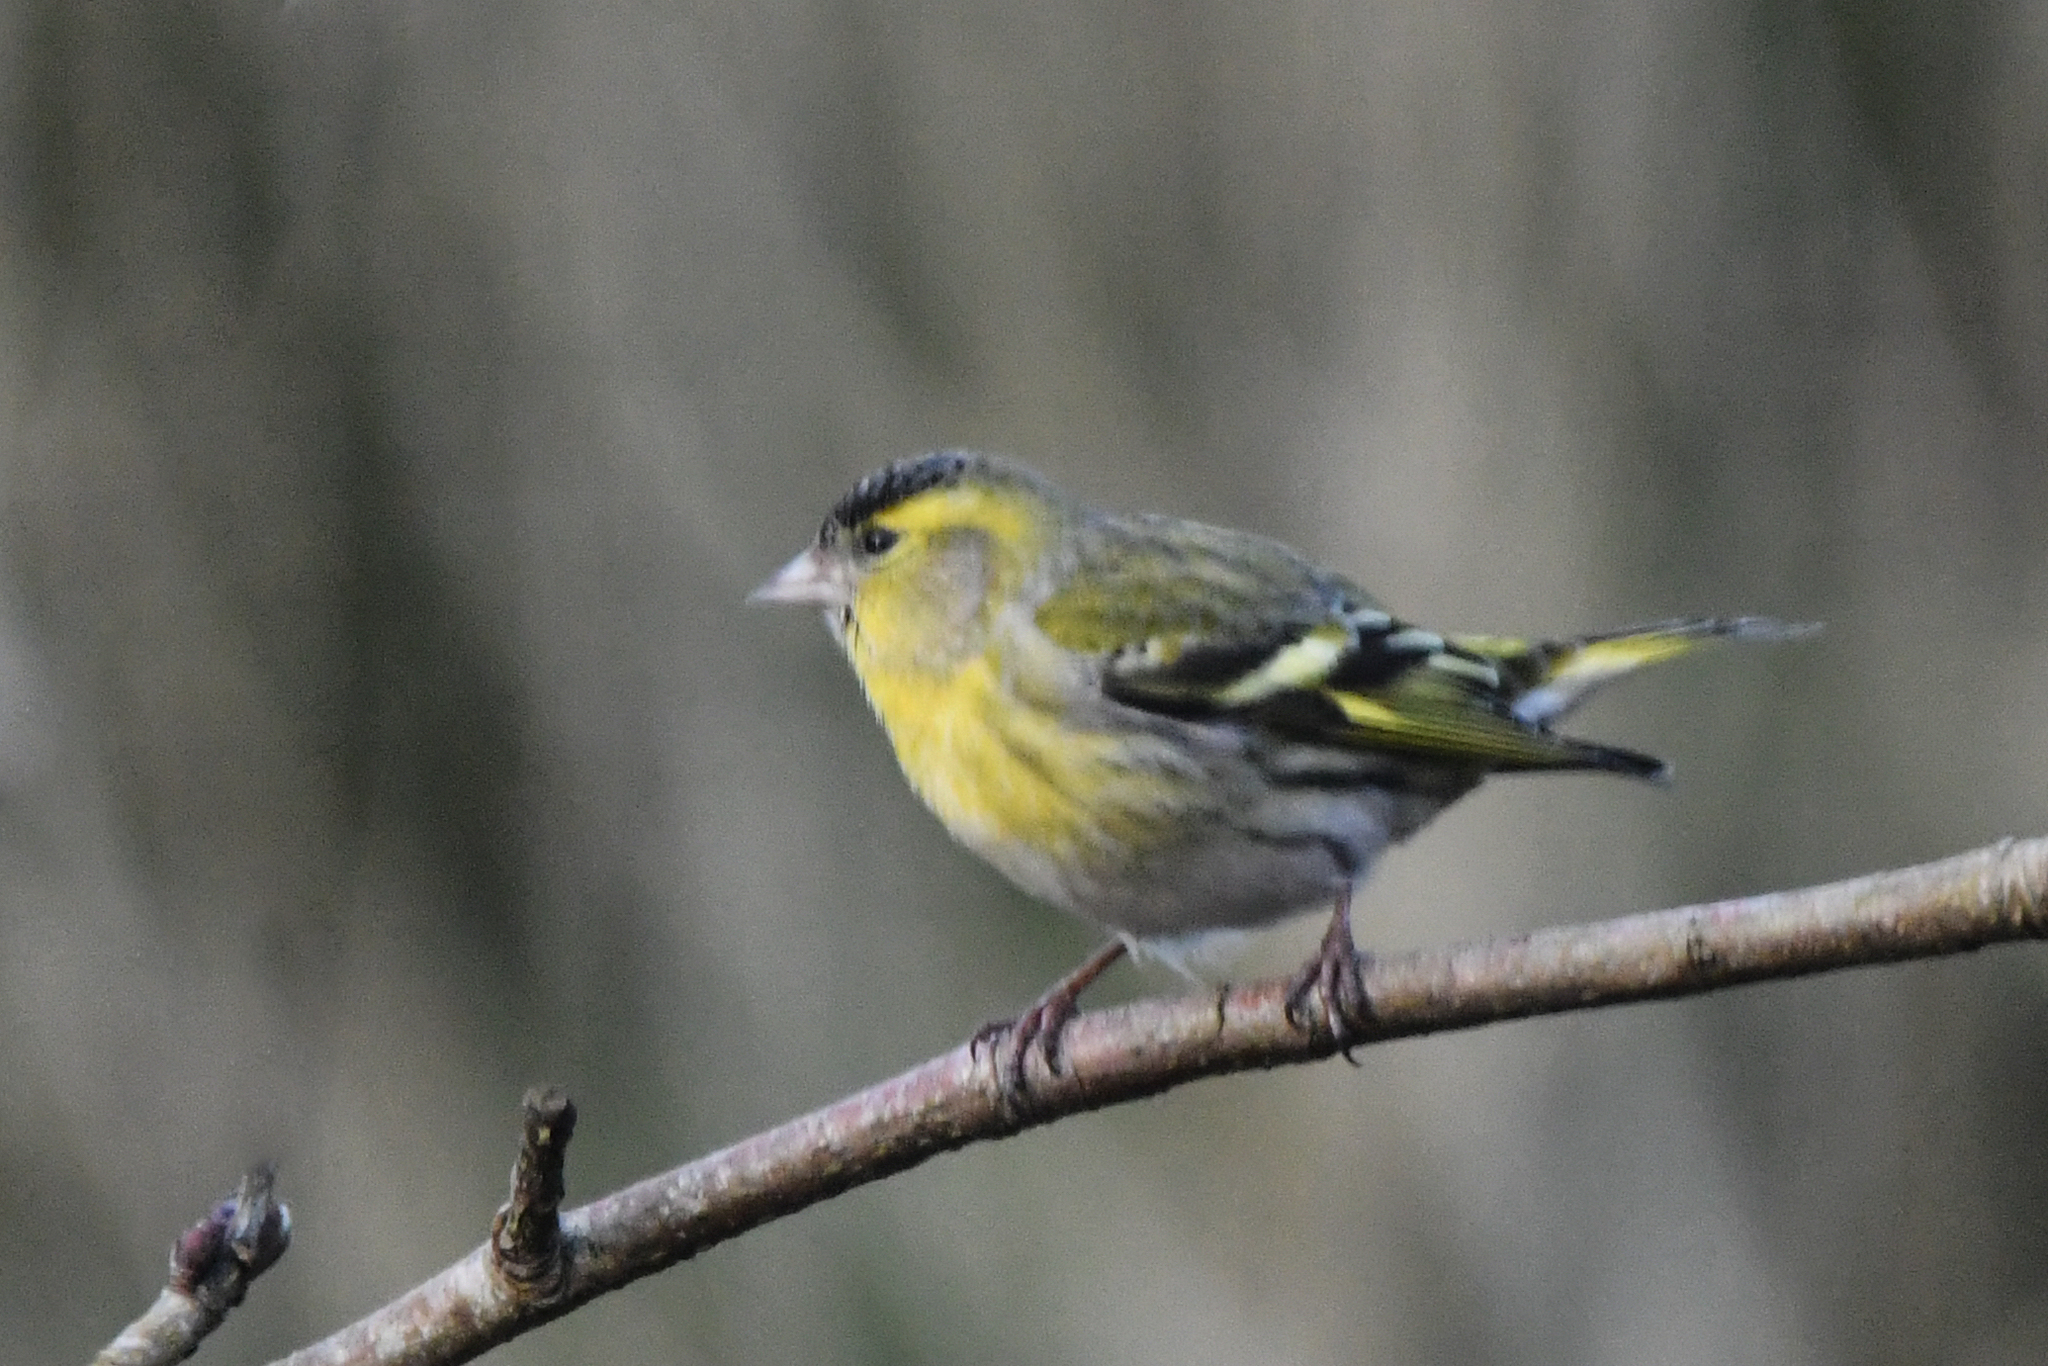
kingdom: Animalia
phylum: Chordata
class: Aves
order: Passeriformes
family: Fringillidae
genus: Spinus
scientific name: Spinus spinus
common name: Eurasian siskin
